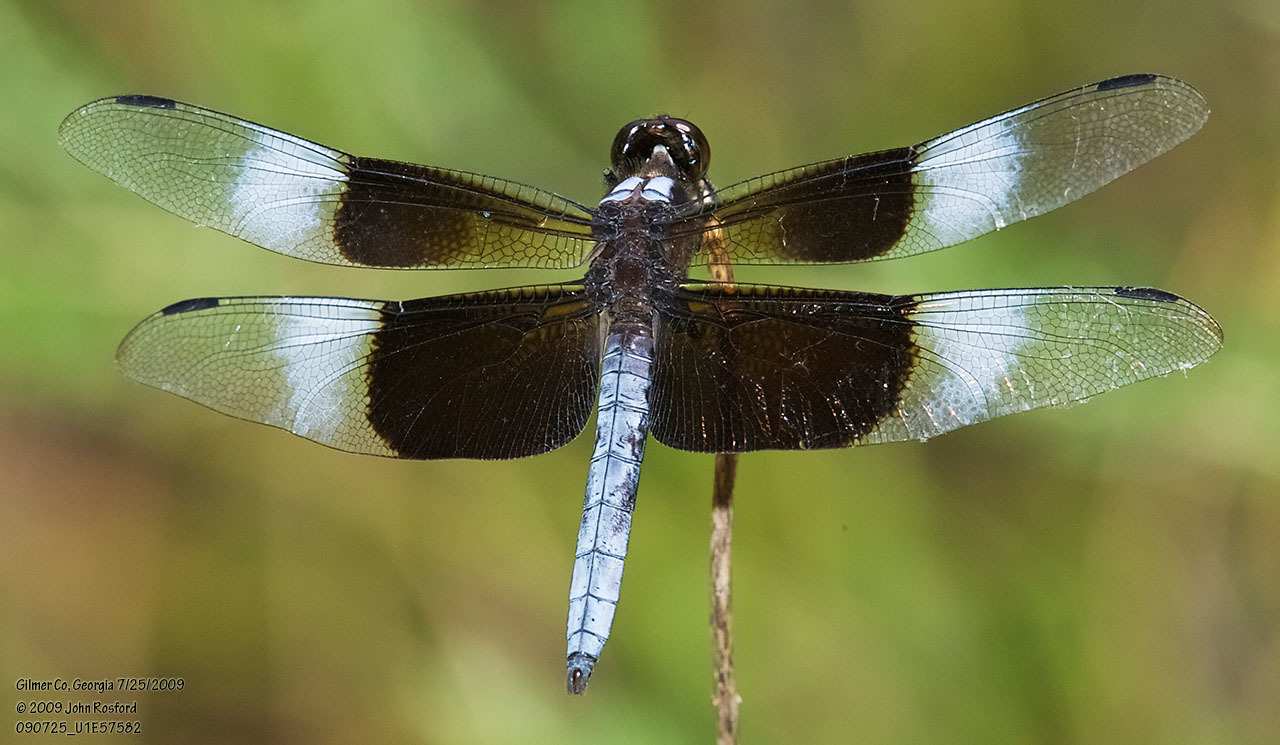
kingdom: Animalia
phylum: Arthropoda
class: Insecta
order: Odonata
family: Libellulidae
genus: Libellula
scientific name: Libellula luctuosa
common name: Widow skimmer
